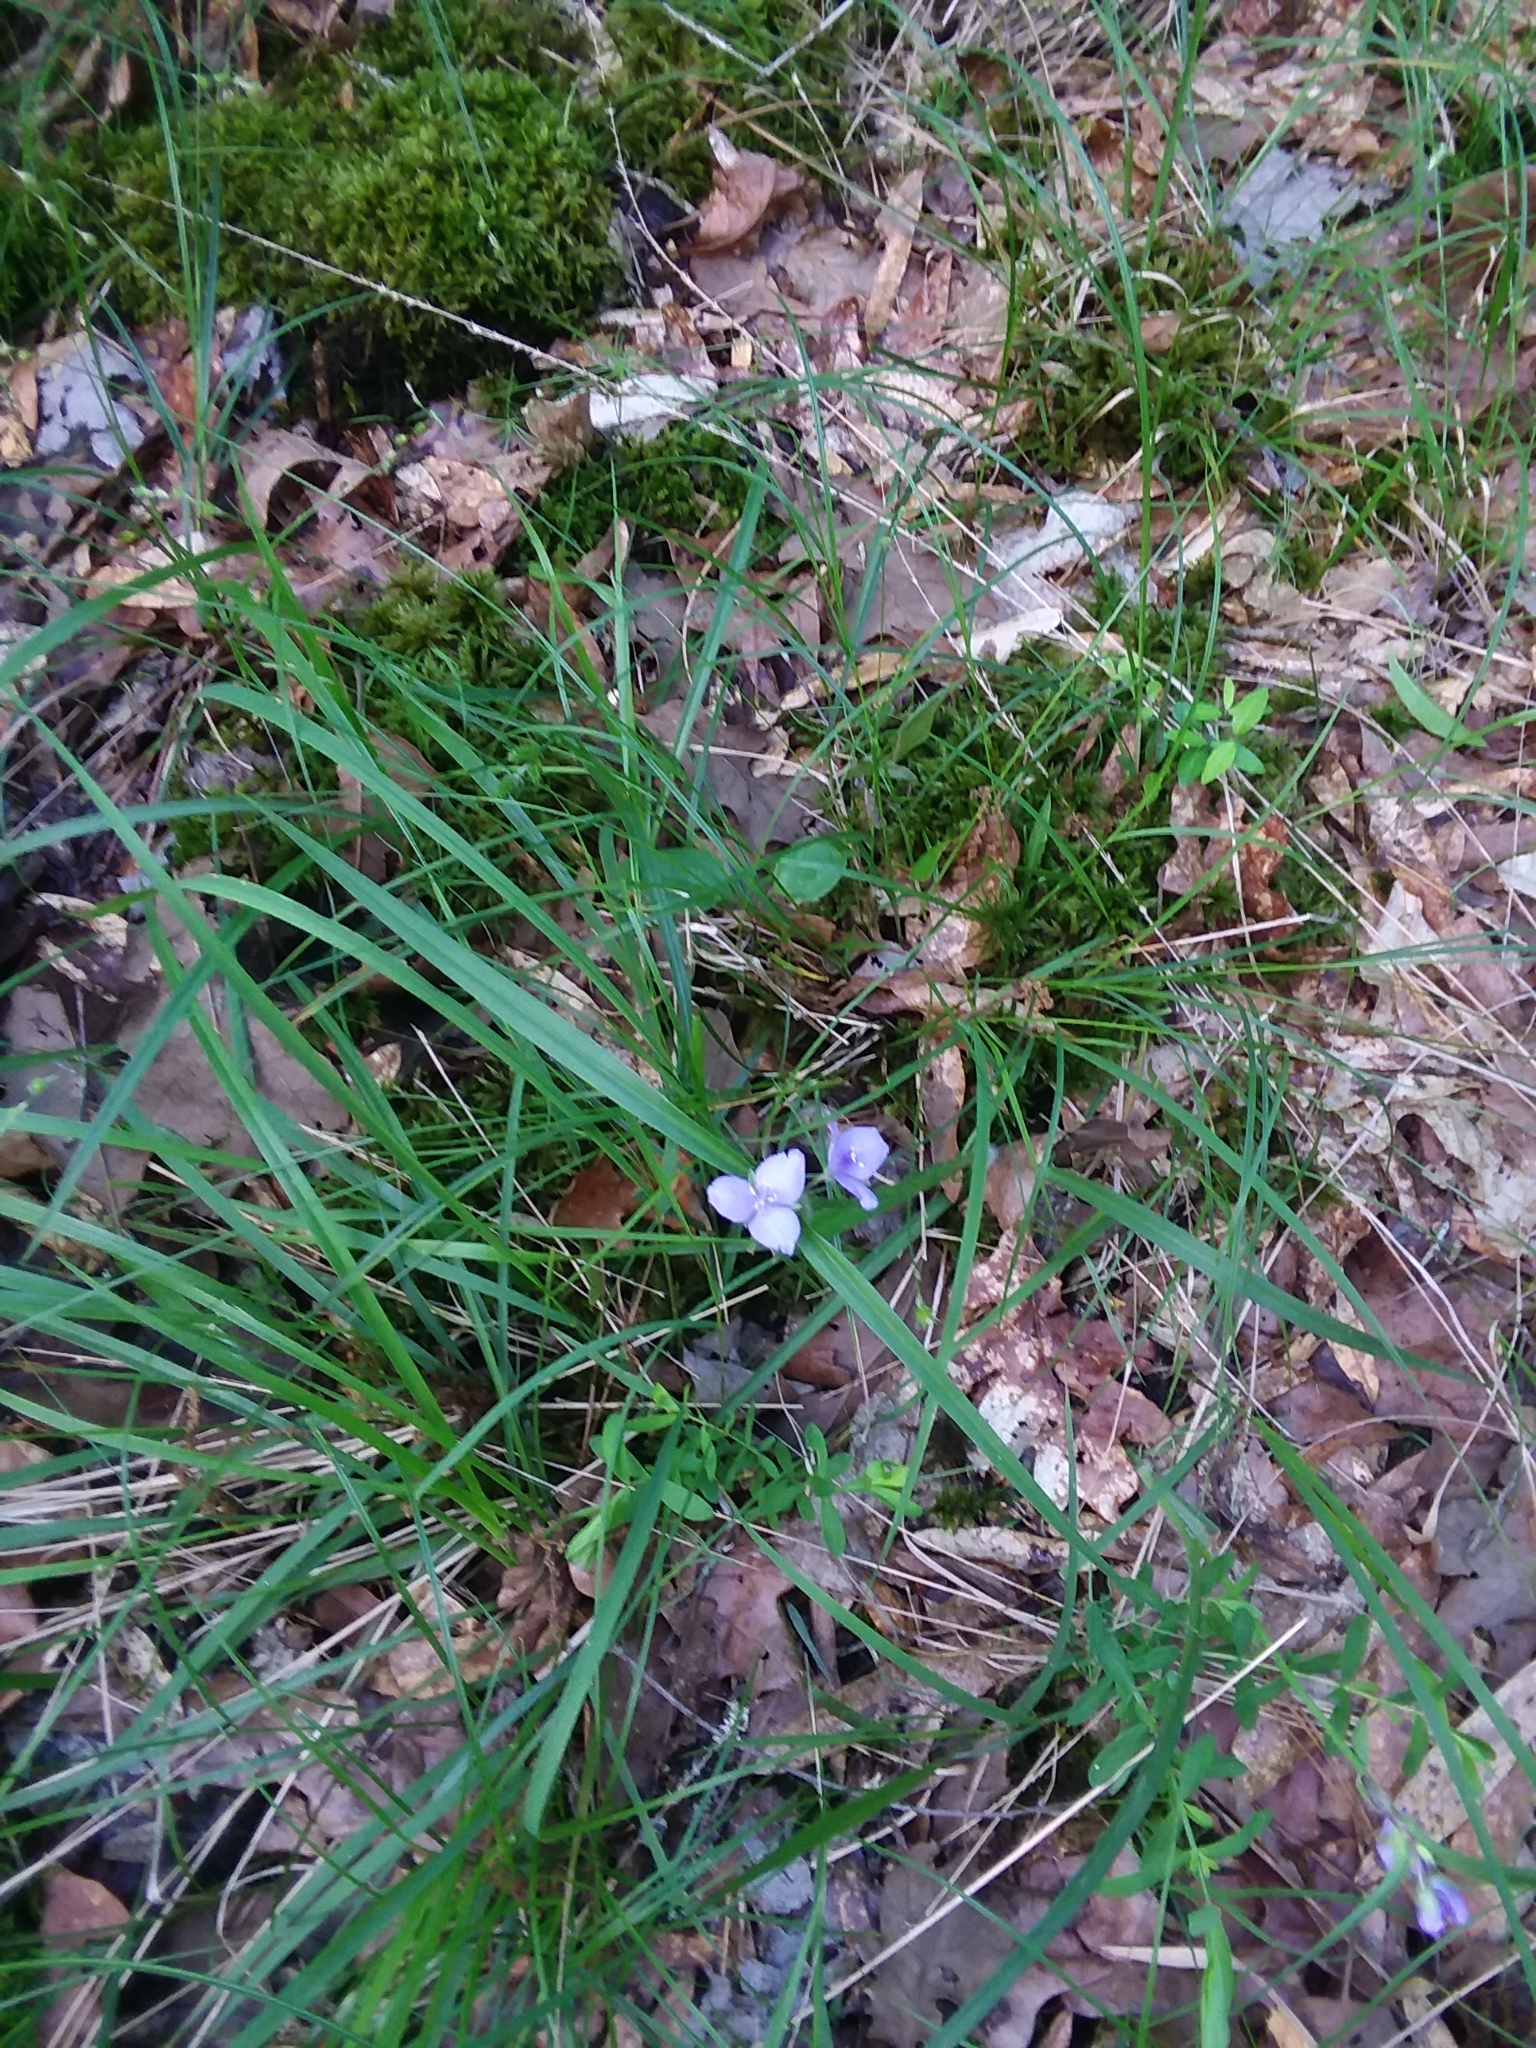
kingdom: Plantae
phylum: Tracheophyta
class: Liliopsida
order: Commelinales
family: Commelinaceae
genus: Tradescantia
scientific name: Tradescantia hirsutiflora
